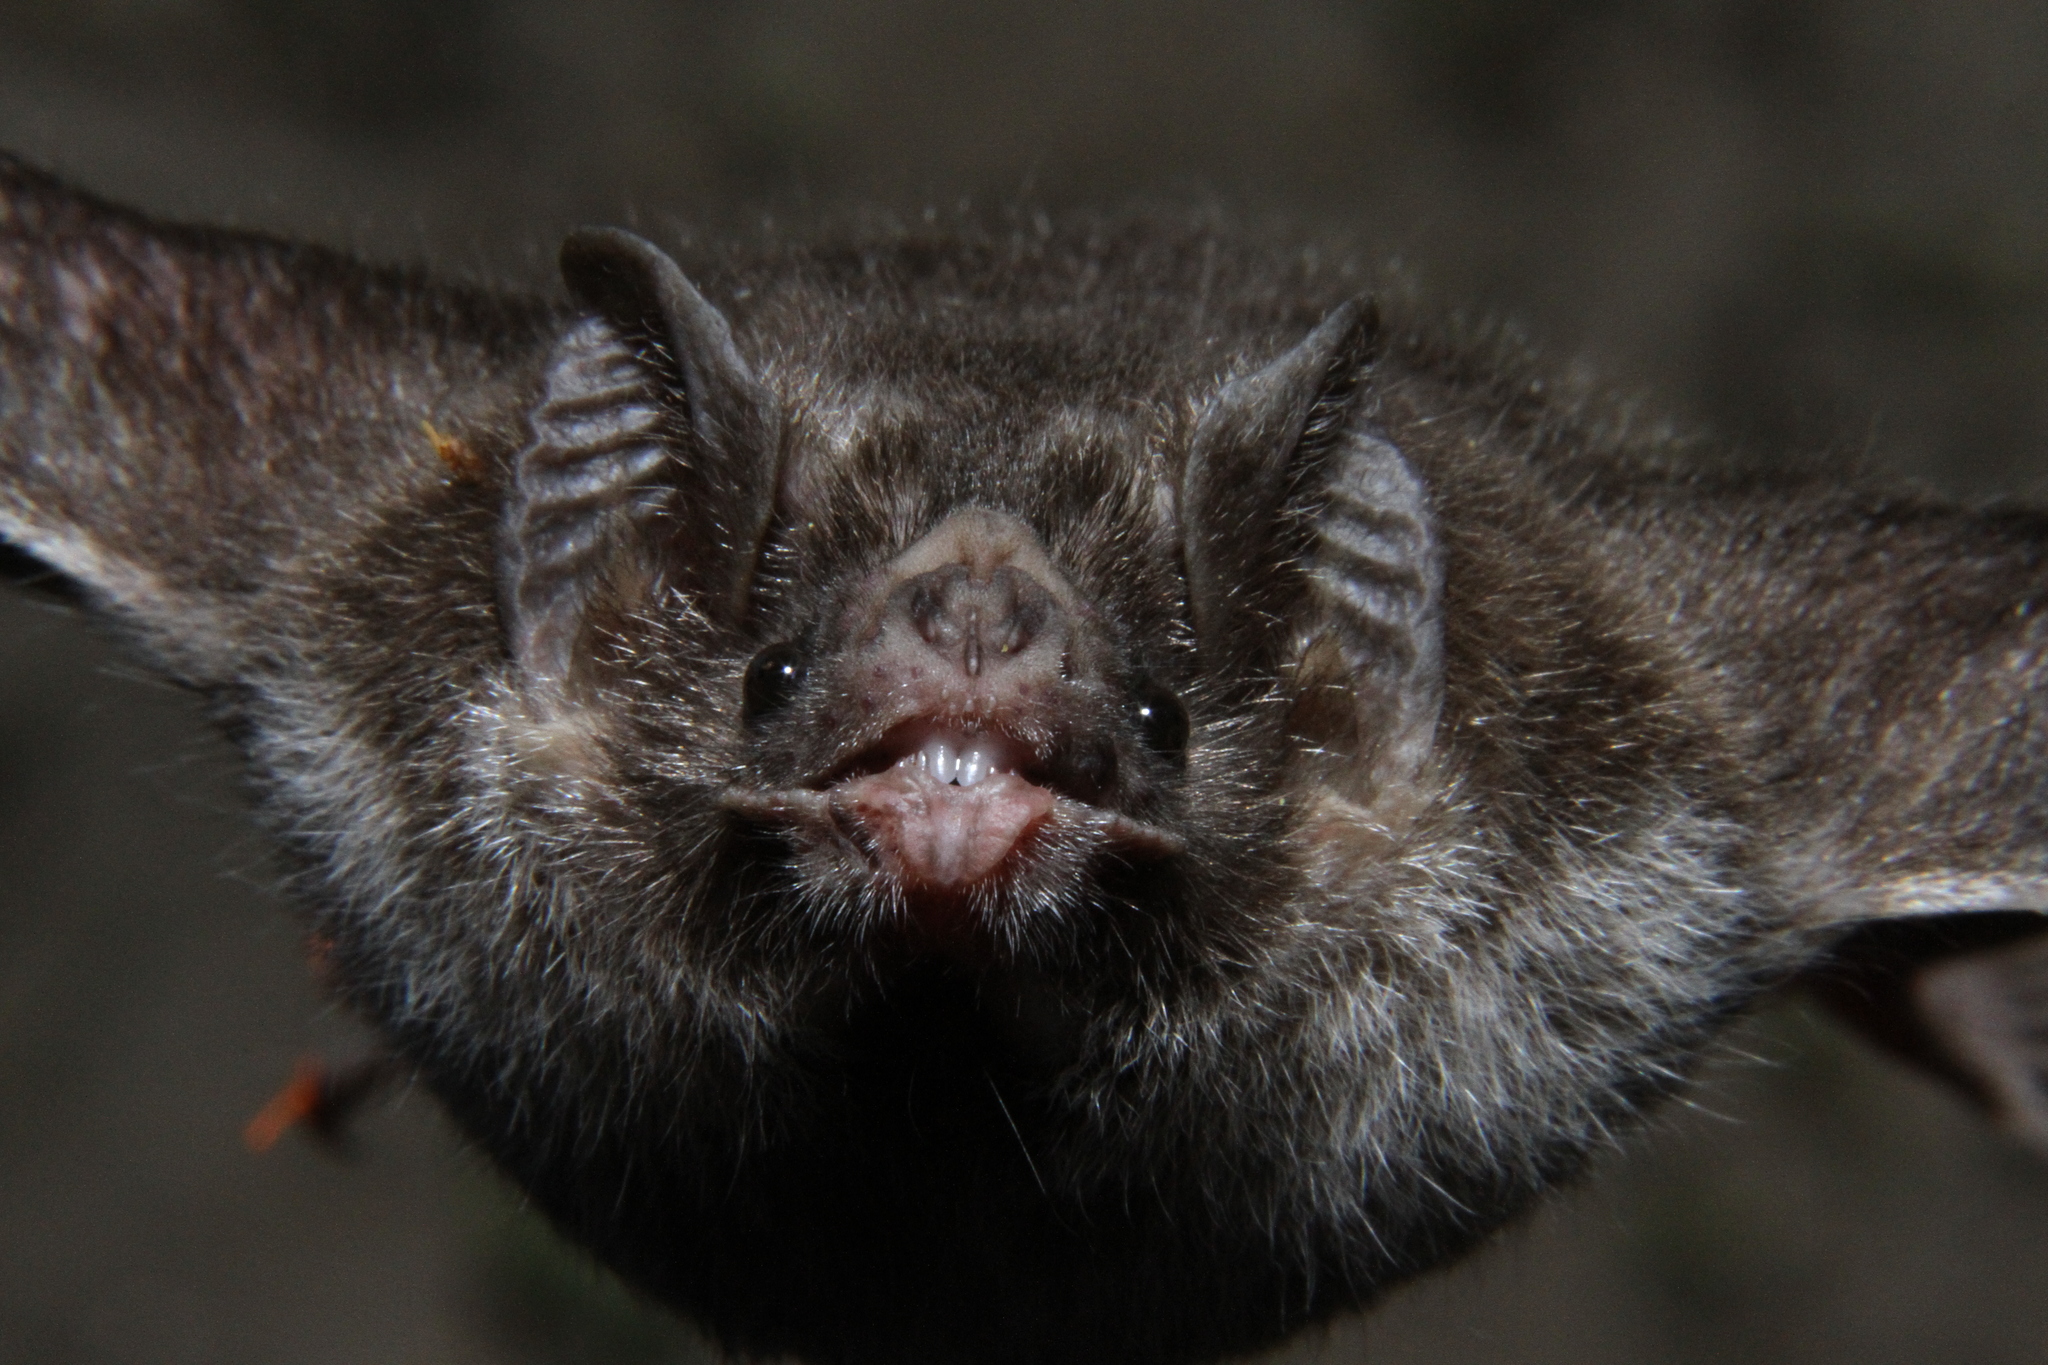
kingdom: Animalia
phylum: Chordata
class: Mammalia
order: Chiroptera
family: Phyllostomidae
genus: Desmodus
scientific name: Desmodus rotundus
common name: Common vampire bat
